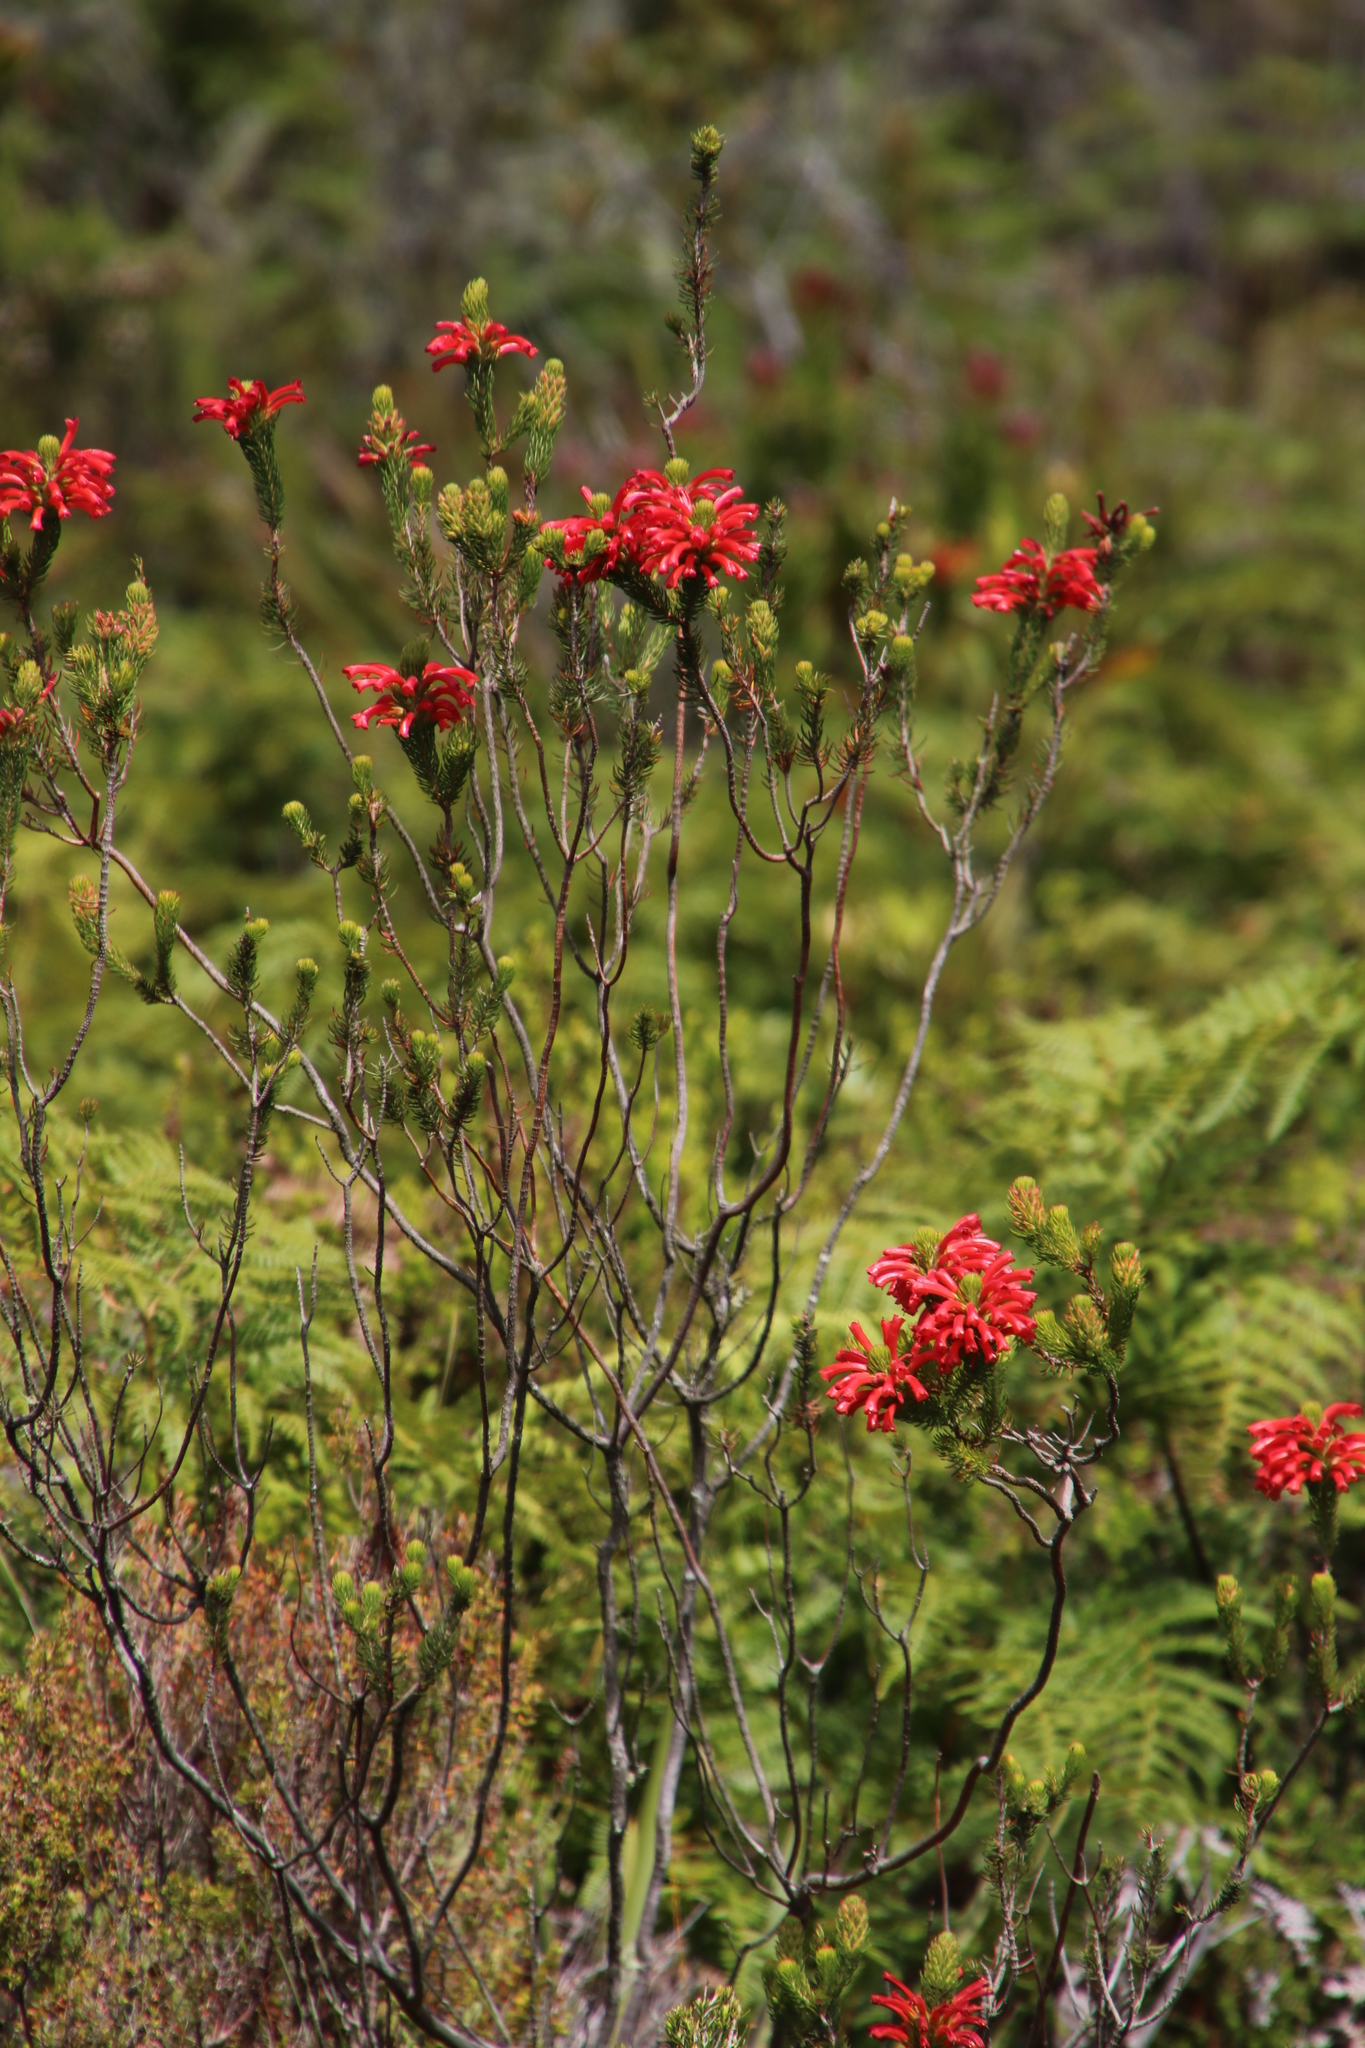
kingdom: Plantae
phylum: Tracheophyta
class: Magnoliopsida
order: Ericales
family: Ericaceae
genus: Erica
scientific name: Erica abietina
